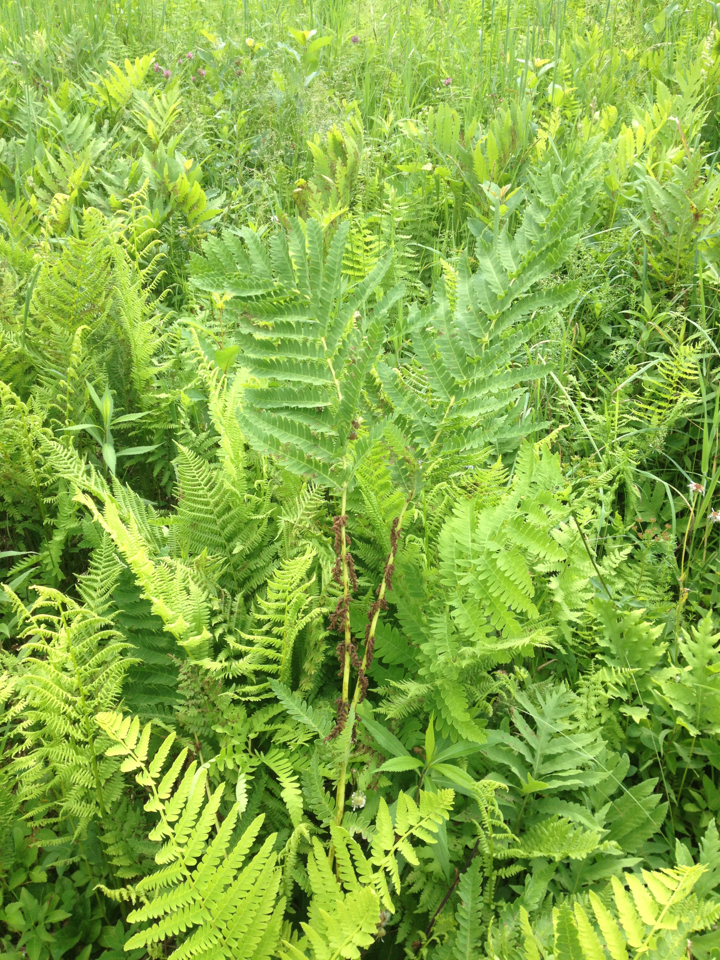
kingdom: Plantae
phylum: Tracheophyta
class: Polypodiopsida
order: Osmundales
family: Osmundaceae
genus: Claytosmunda
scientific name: Claytosmunda claytoniana
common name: Clayton's fern
